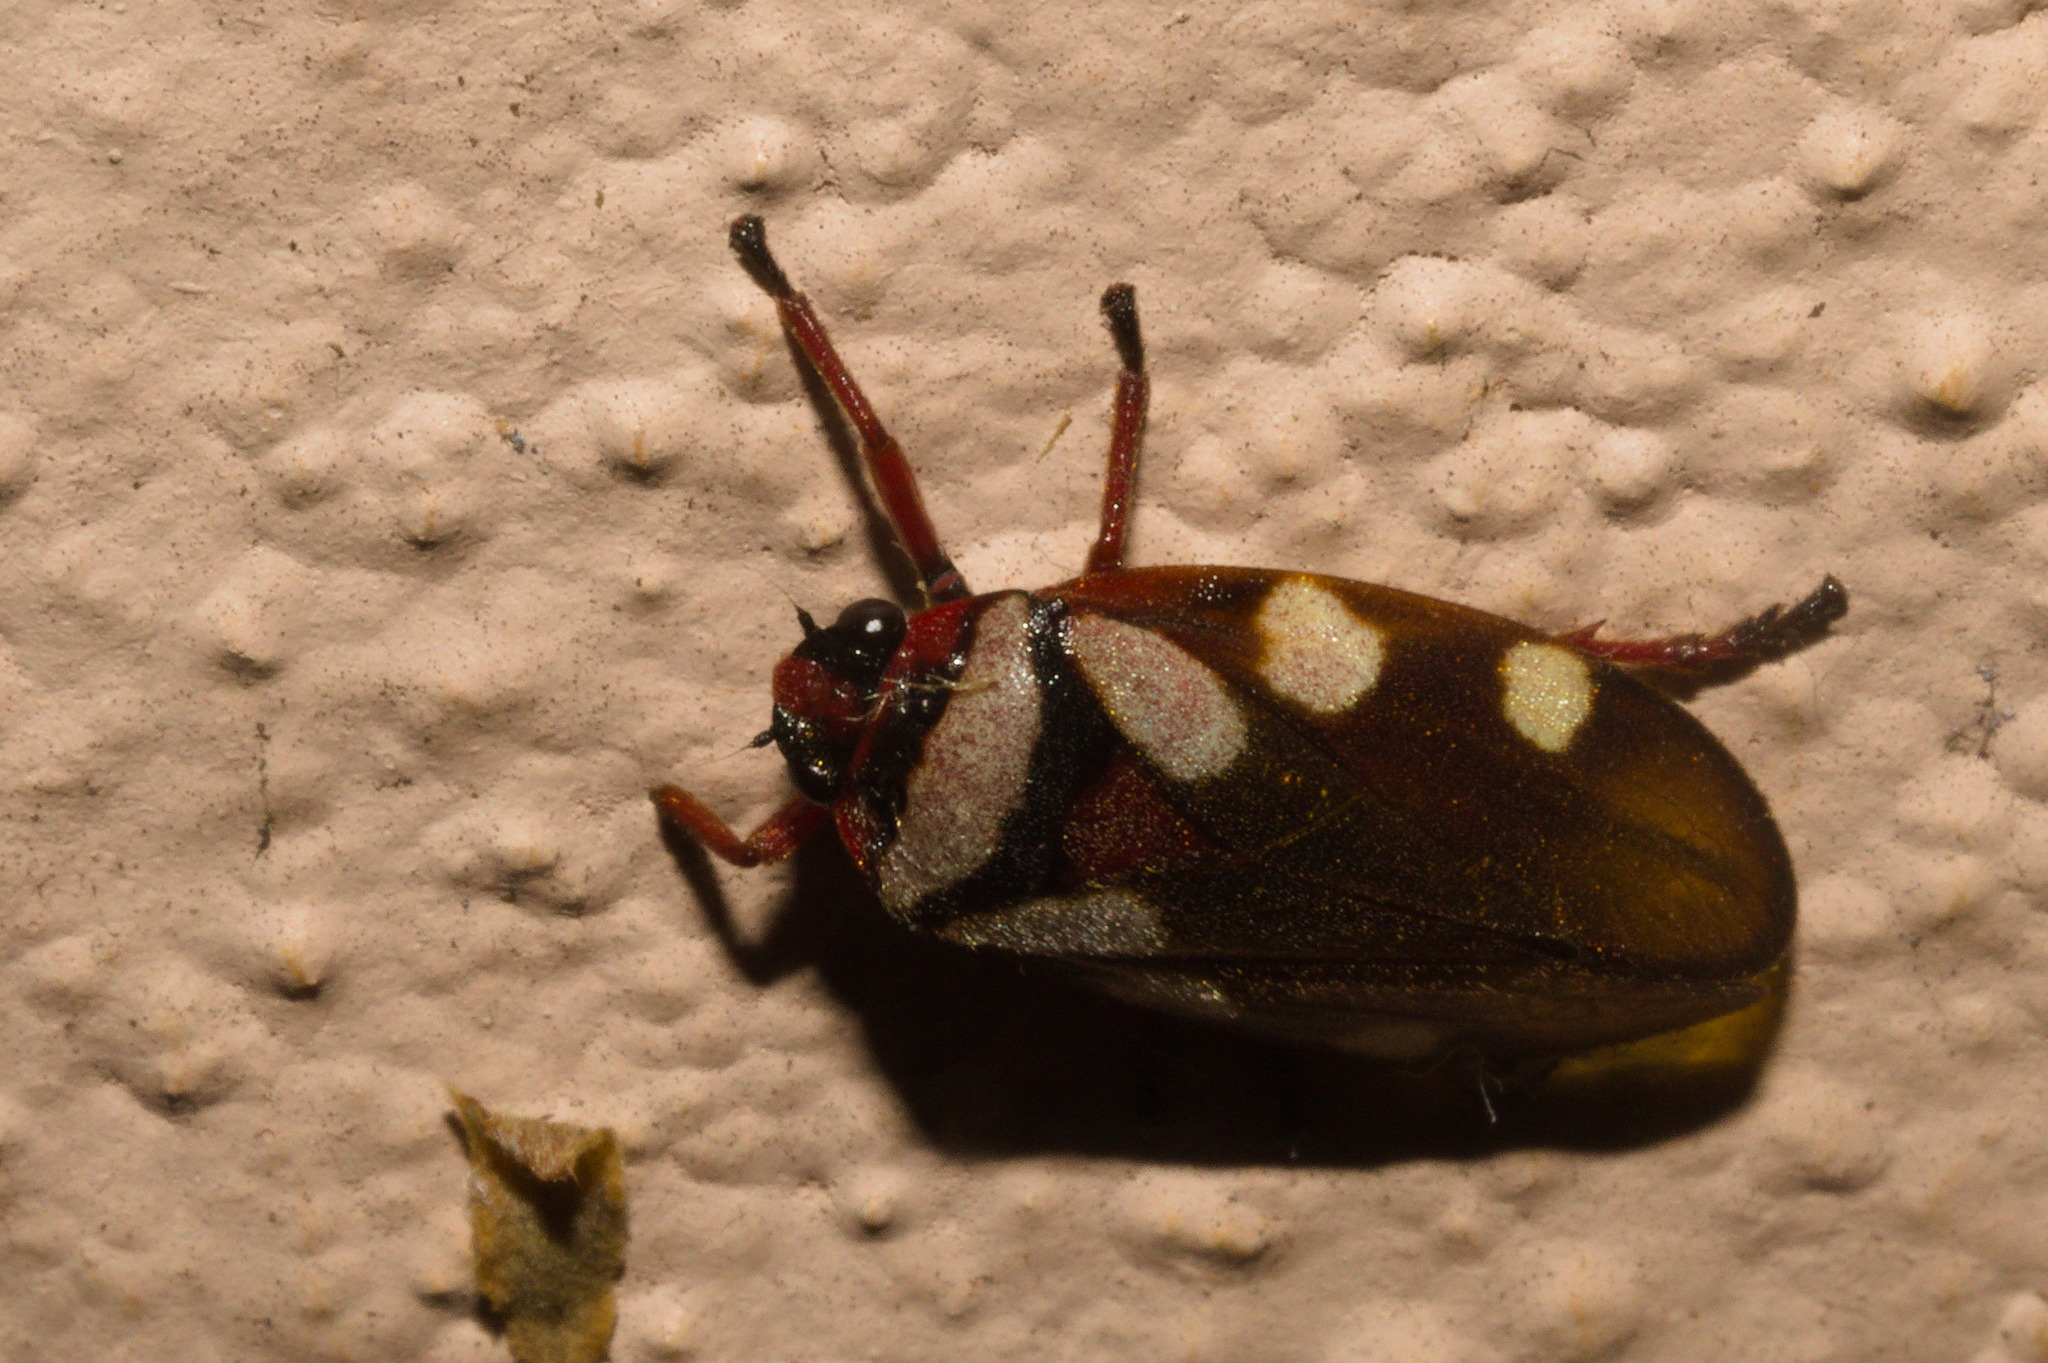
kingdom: Animalia
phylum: Arthropoda
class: Insecta
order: Hemiptera
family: Cercopidae
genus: Tunaima
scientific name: Tunaima brunneolutea
